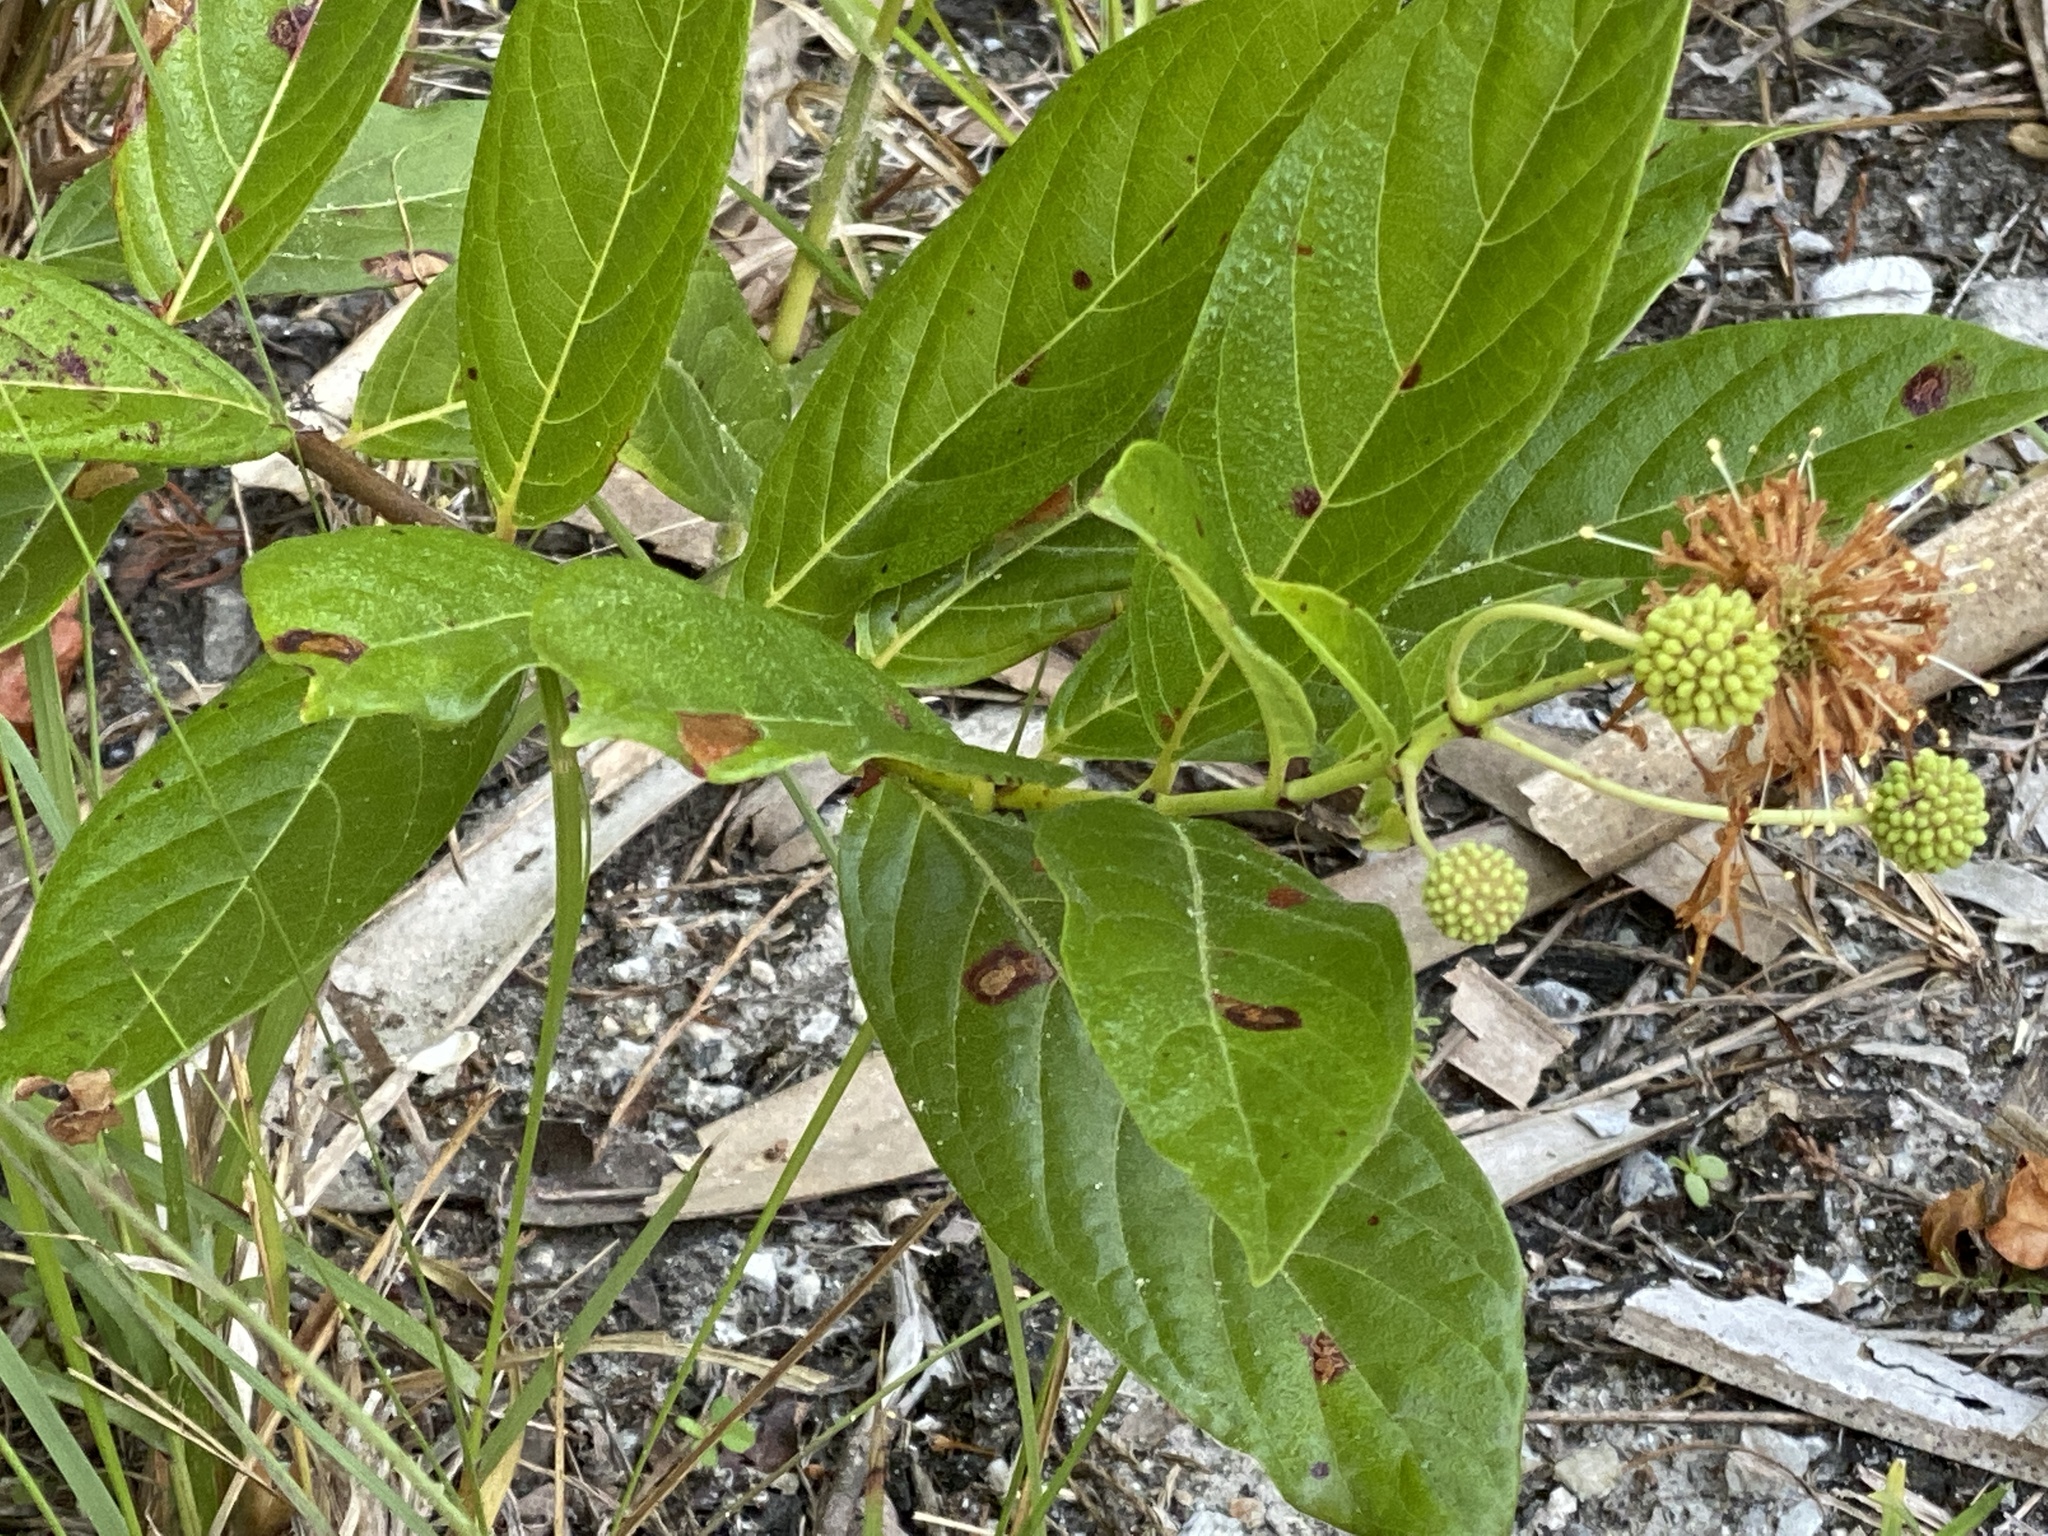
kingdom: Plantae
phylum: Tracheophyta
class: Magnoliopsida
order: Gentianales
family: Rubiaceae
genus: Cephalanthus
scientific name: Cephalanthus occidentalis
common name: Button-willow
